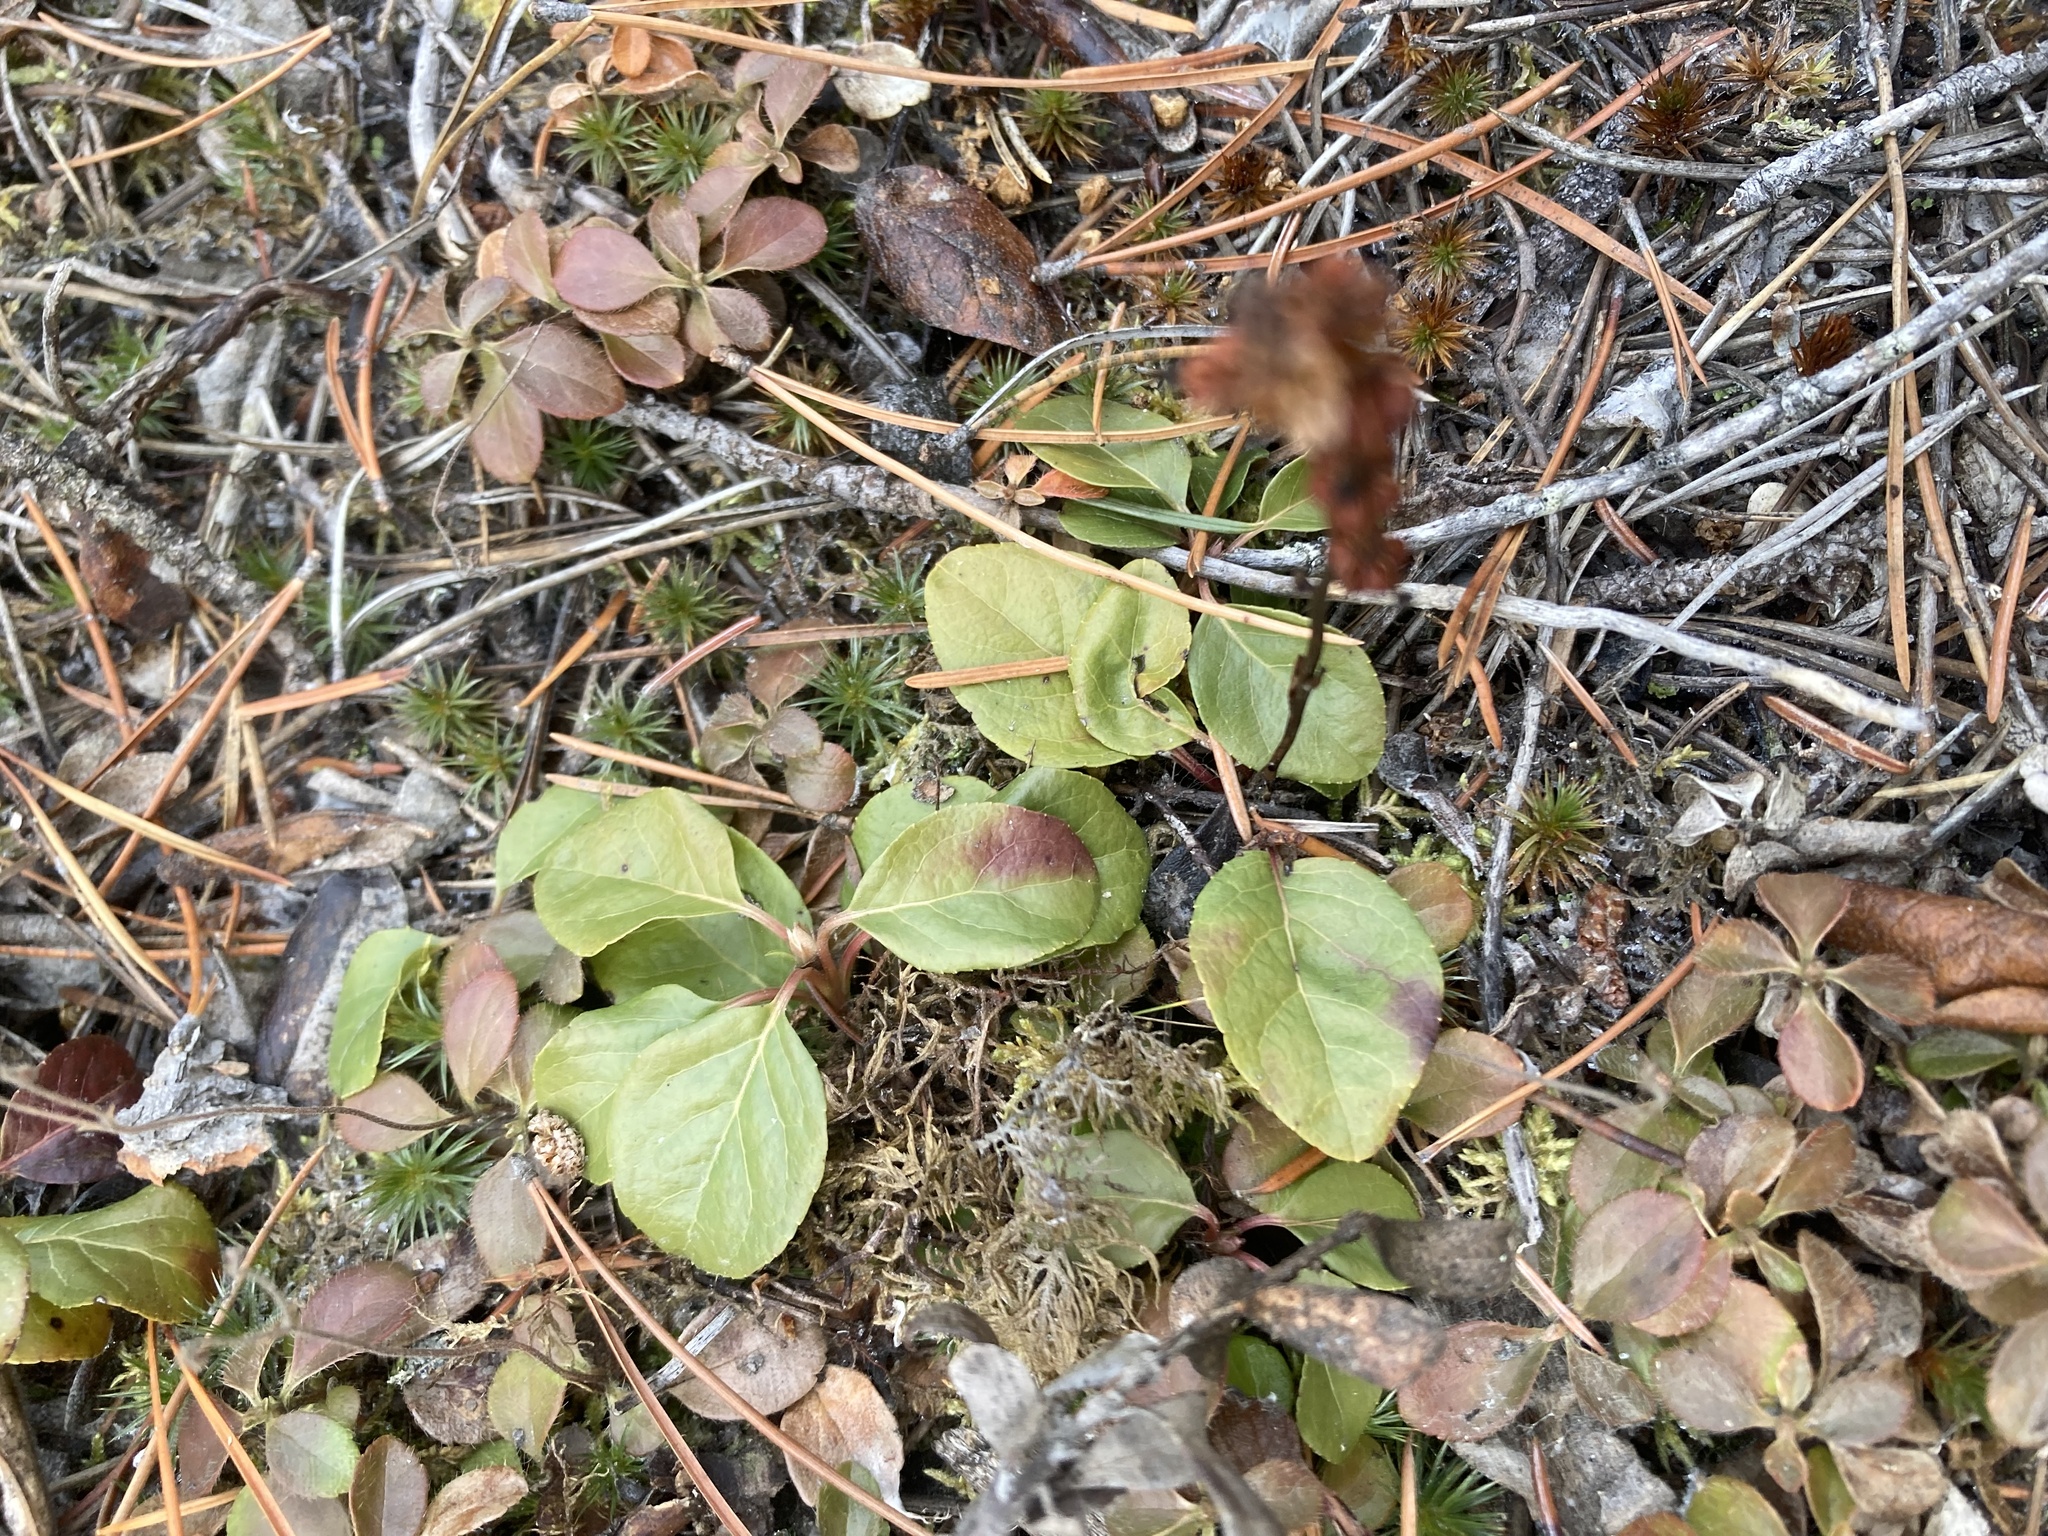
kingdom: Plantae
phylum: Tracheophyta
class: Magnoliopsida
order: Ericales
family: Ericaceae
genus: Orthilia
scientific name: Orthilia secunda
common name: One-sided orthilia
